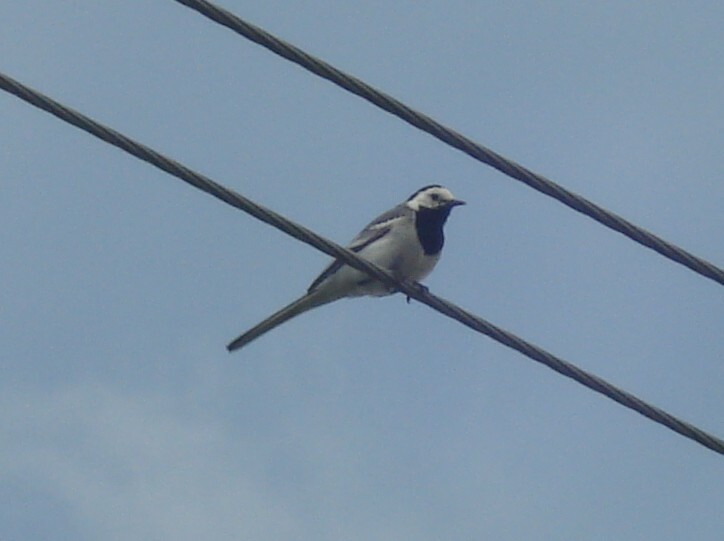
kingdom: Animalia
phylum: Chordata
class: Aves
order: Passeriformes
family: Motacillidae
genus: Motacilla
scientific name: Motacilla alba
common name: White wagtail
